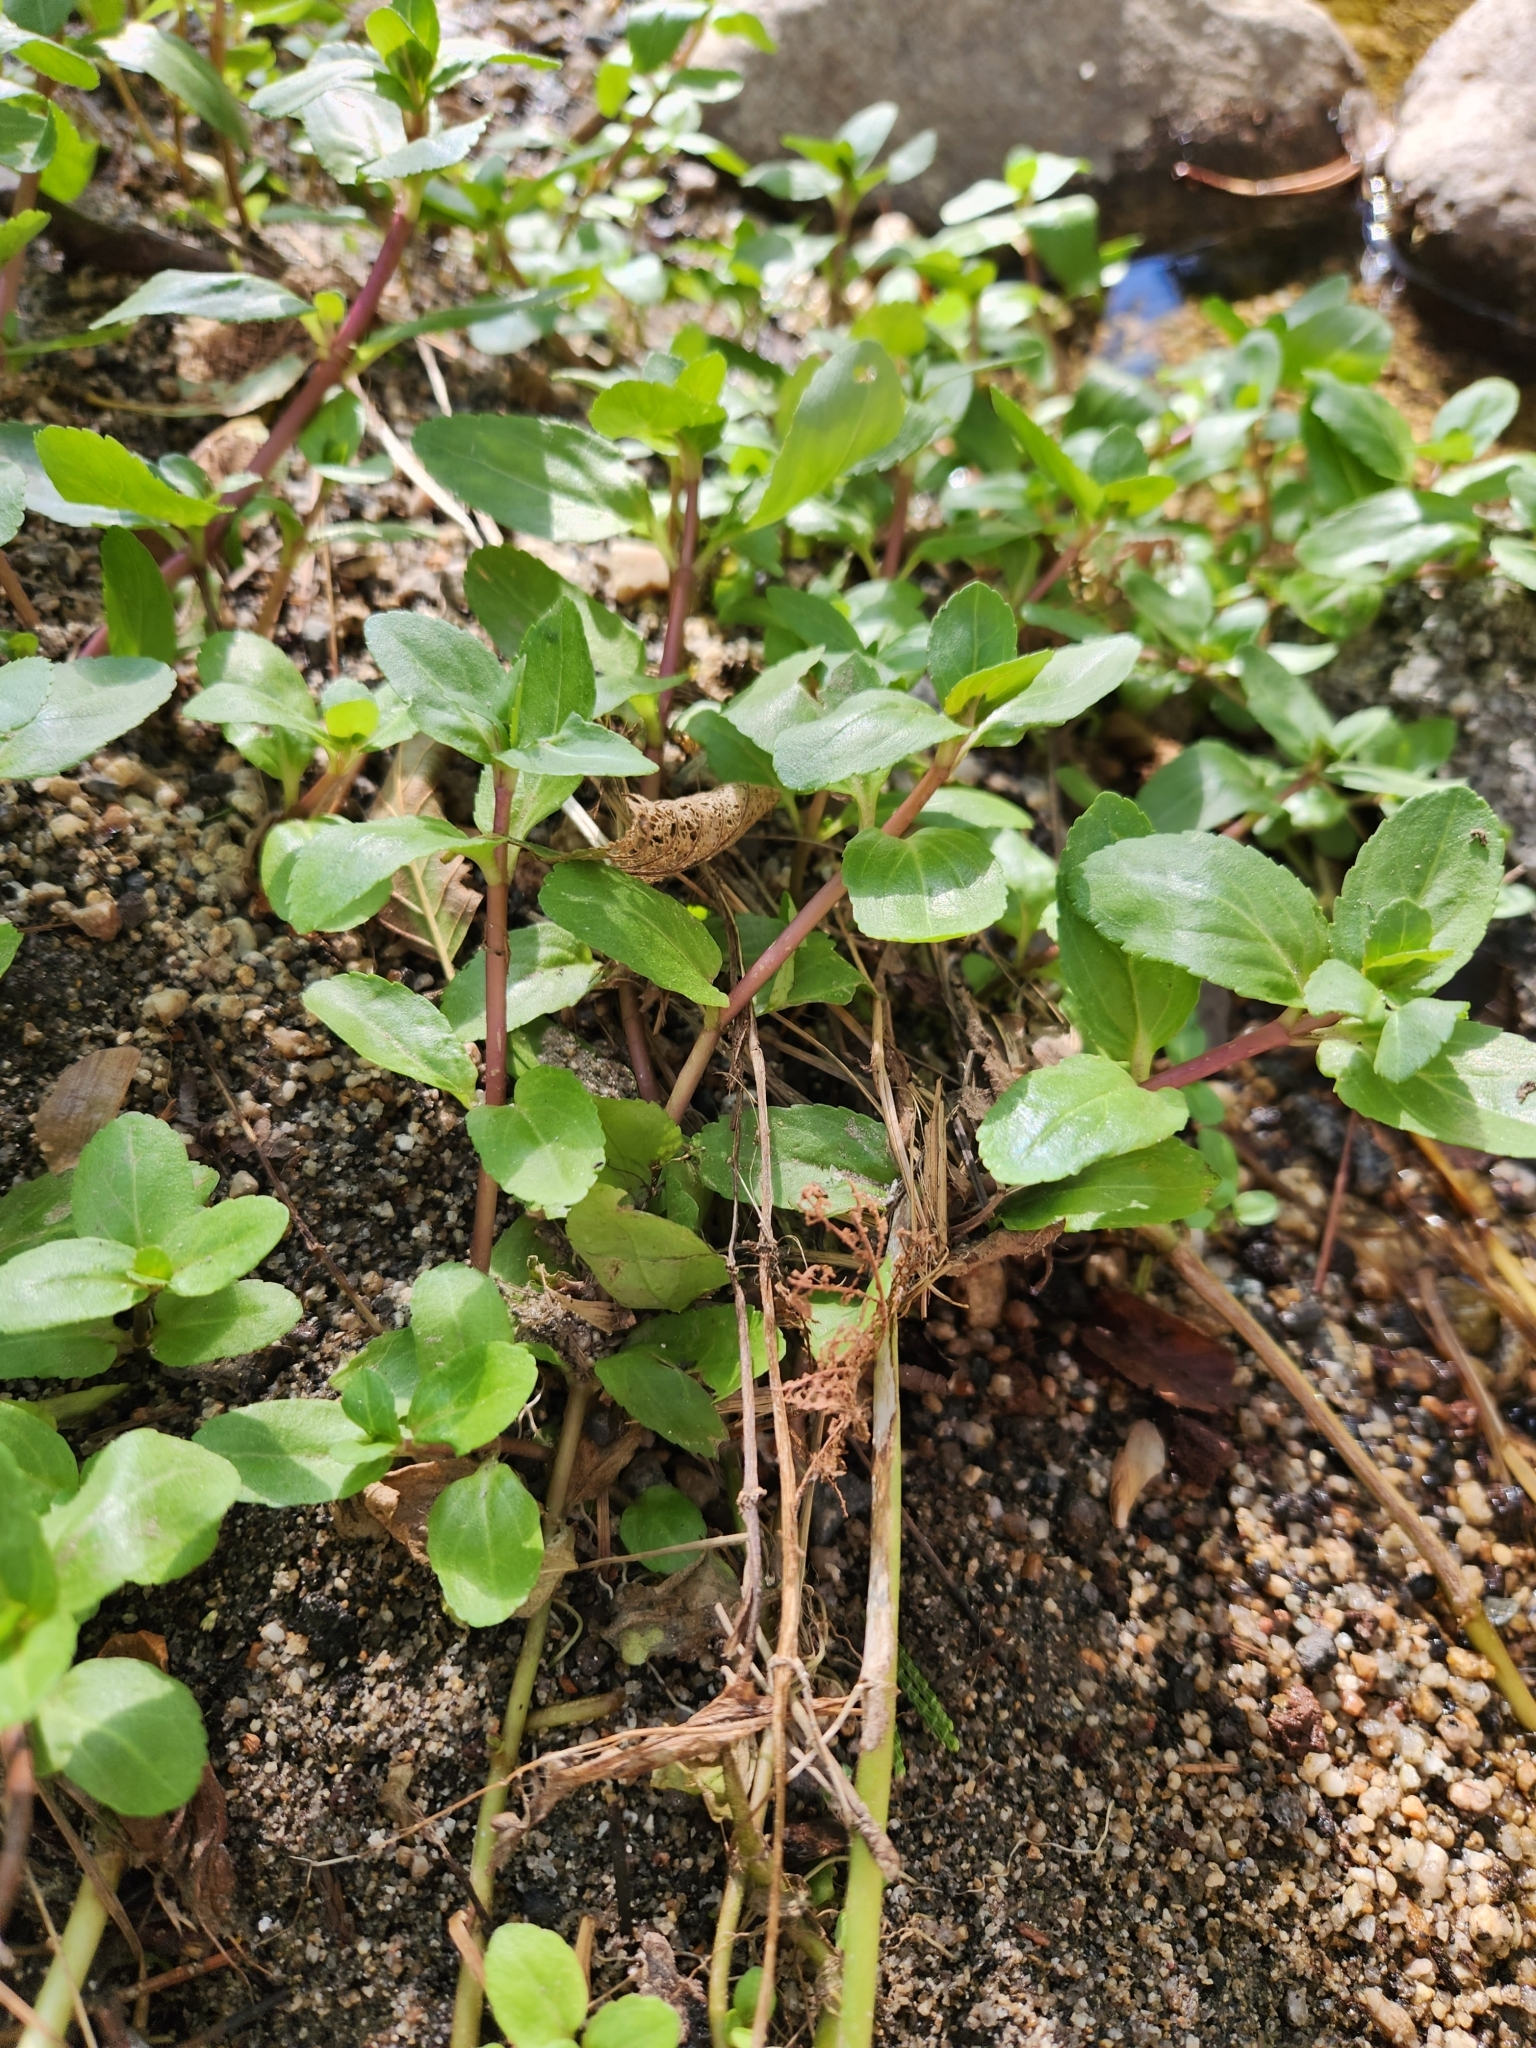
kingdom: Plantae
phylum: Tracheophyta
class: Magnoliopsida
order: Lamiales
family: Plantaginaceae
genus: Veronica
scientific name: Veronica americana
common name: American brooklime
